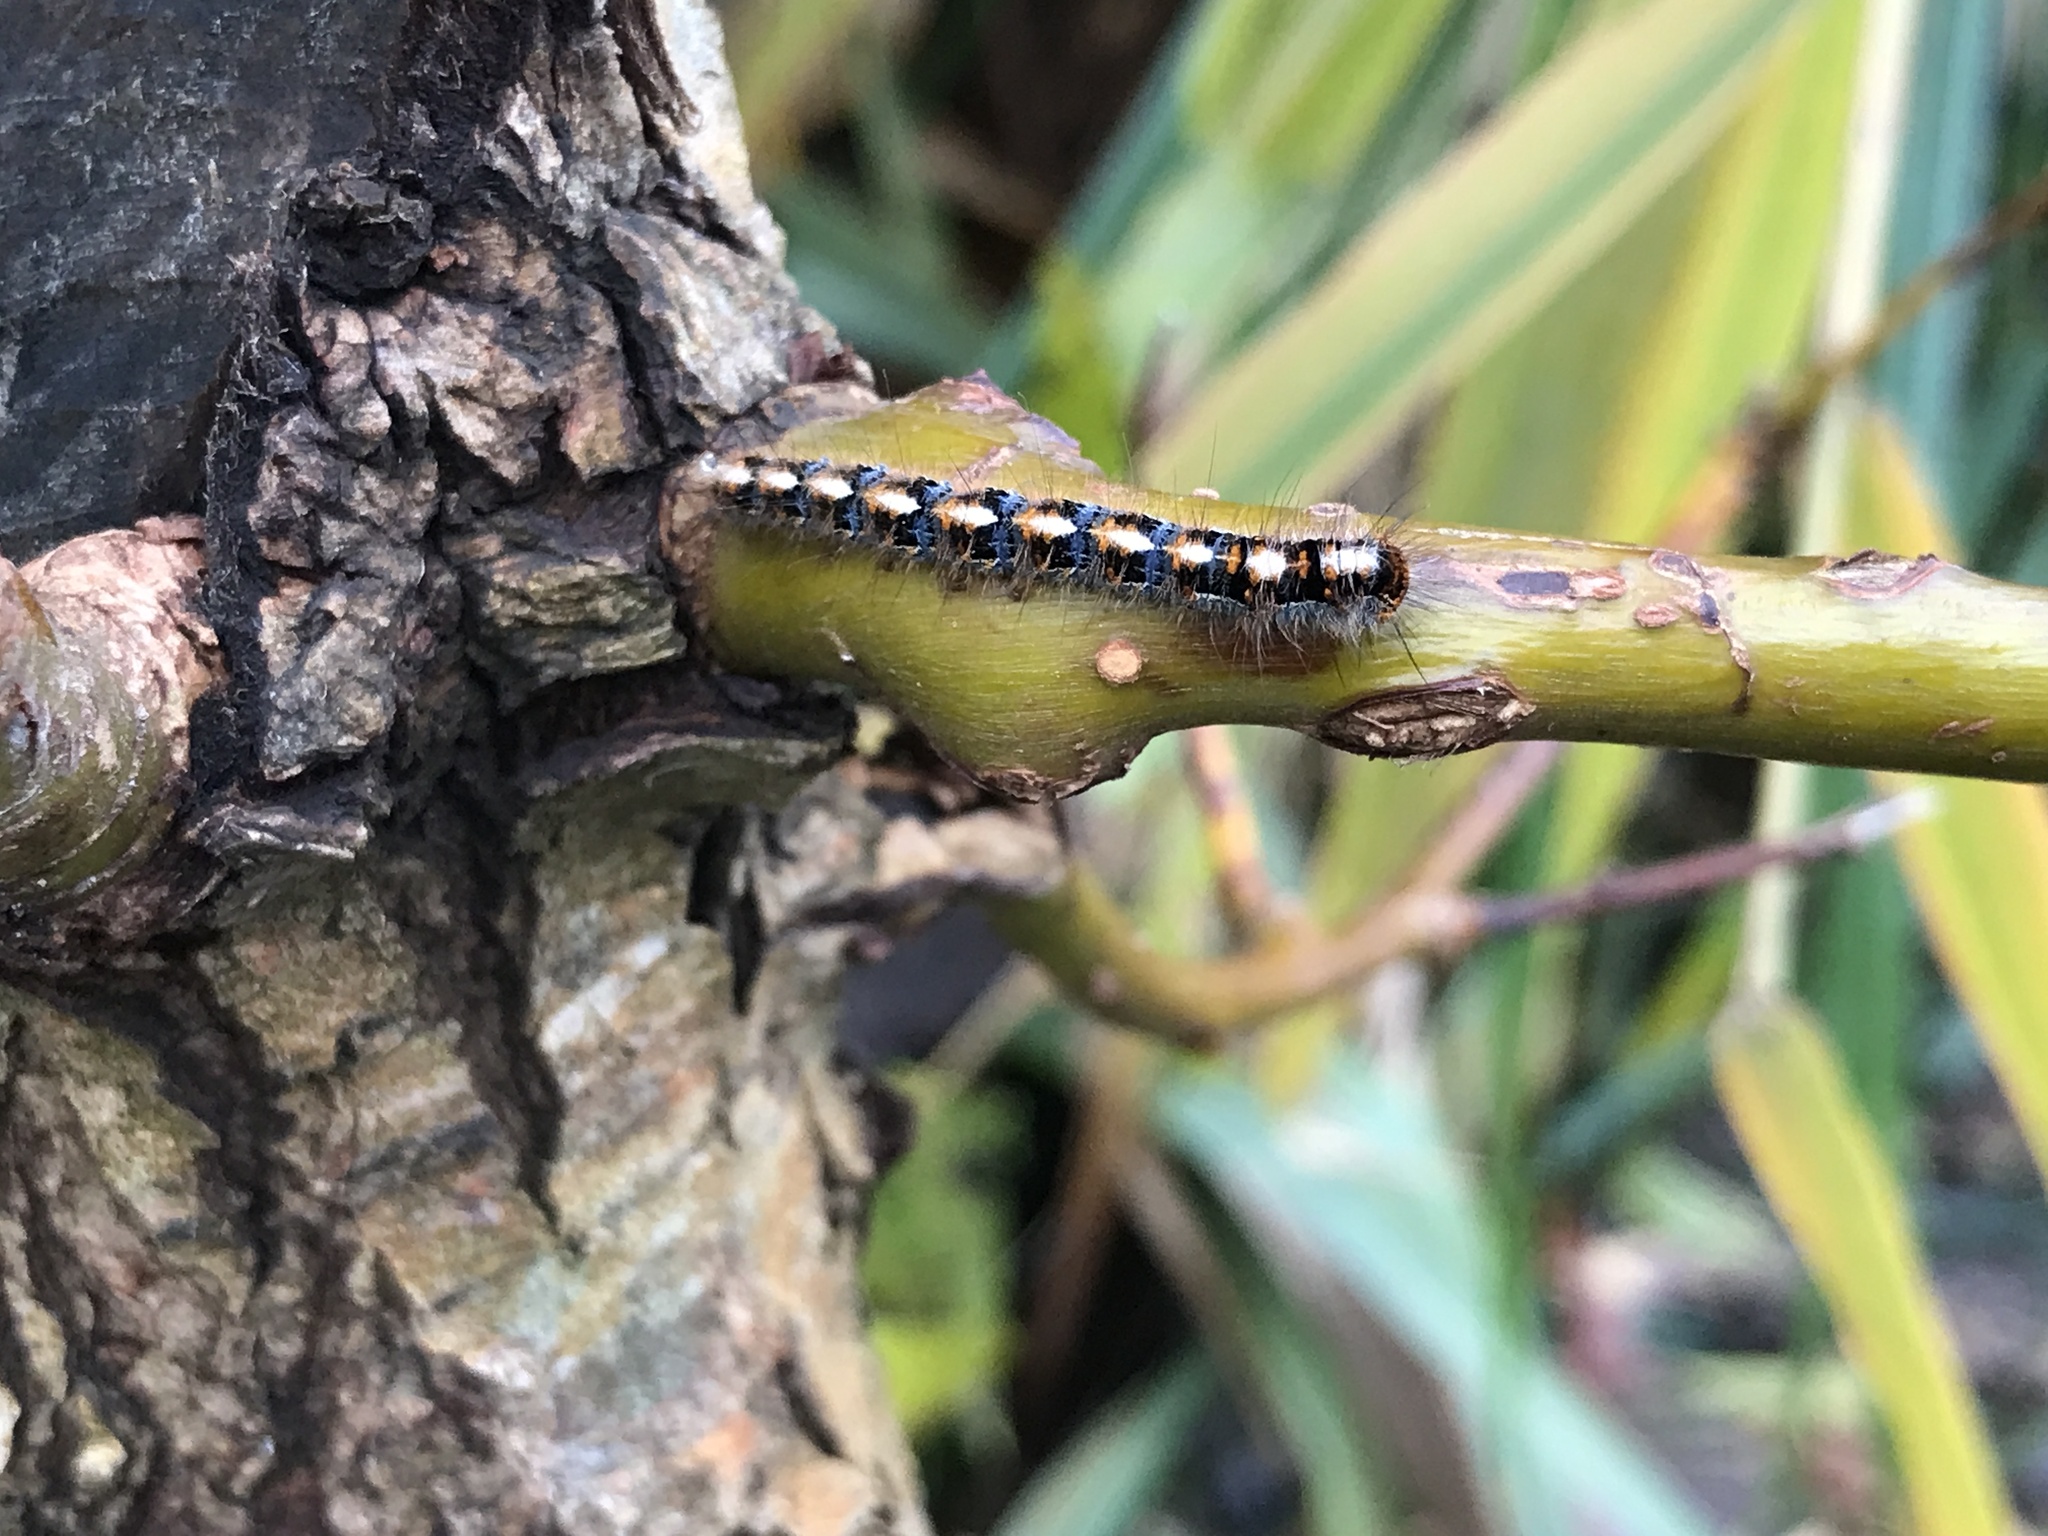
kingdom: Animalia
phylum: Arthropoda
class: Insecta
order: Lepidoptera
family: Lasiocampidae
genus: Lasiocampa
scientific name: Lasiocampa quercus
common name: Oak eggar
